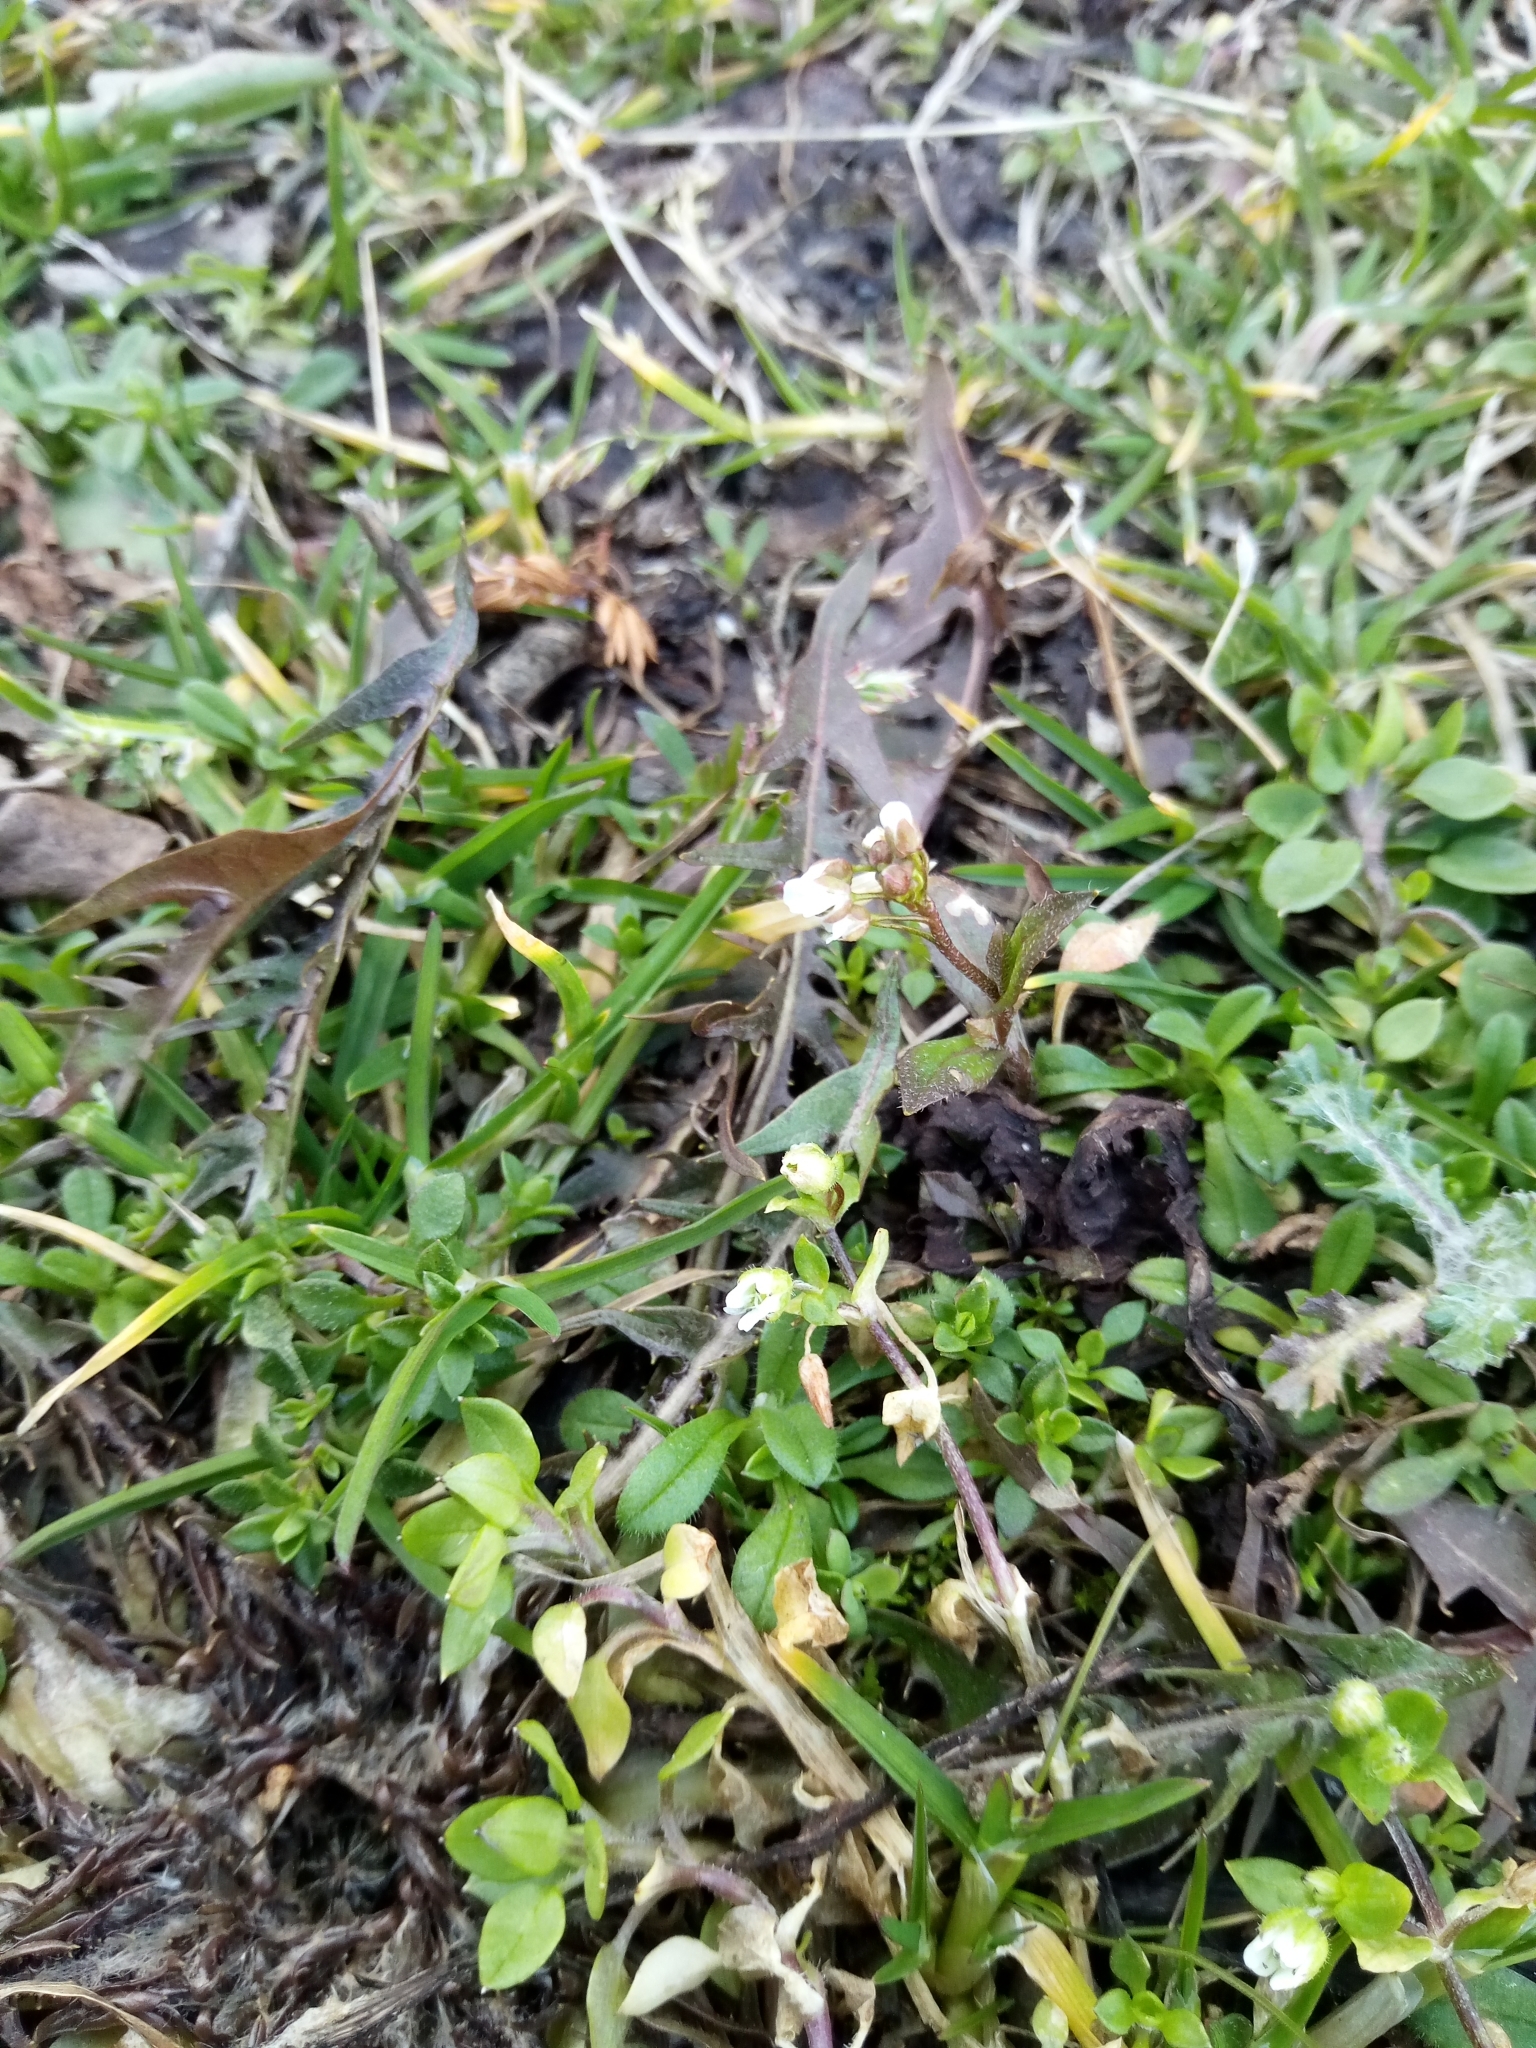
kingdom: Plantae
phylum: Tracheophyta
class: Magnoliopsida
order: Brassicales
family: Brassicaceae
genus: Capsella
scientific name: Capsella bursa-pastoris
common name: Shepherd's purse
